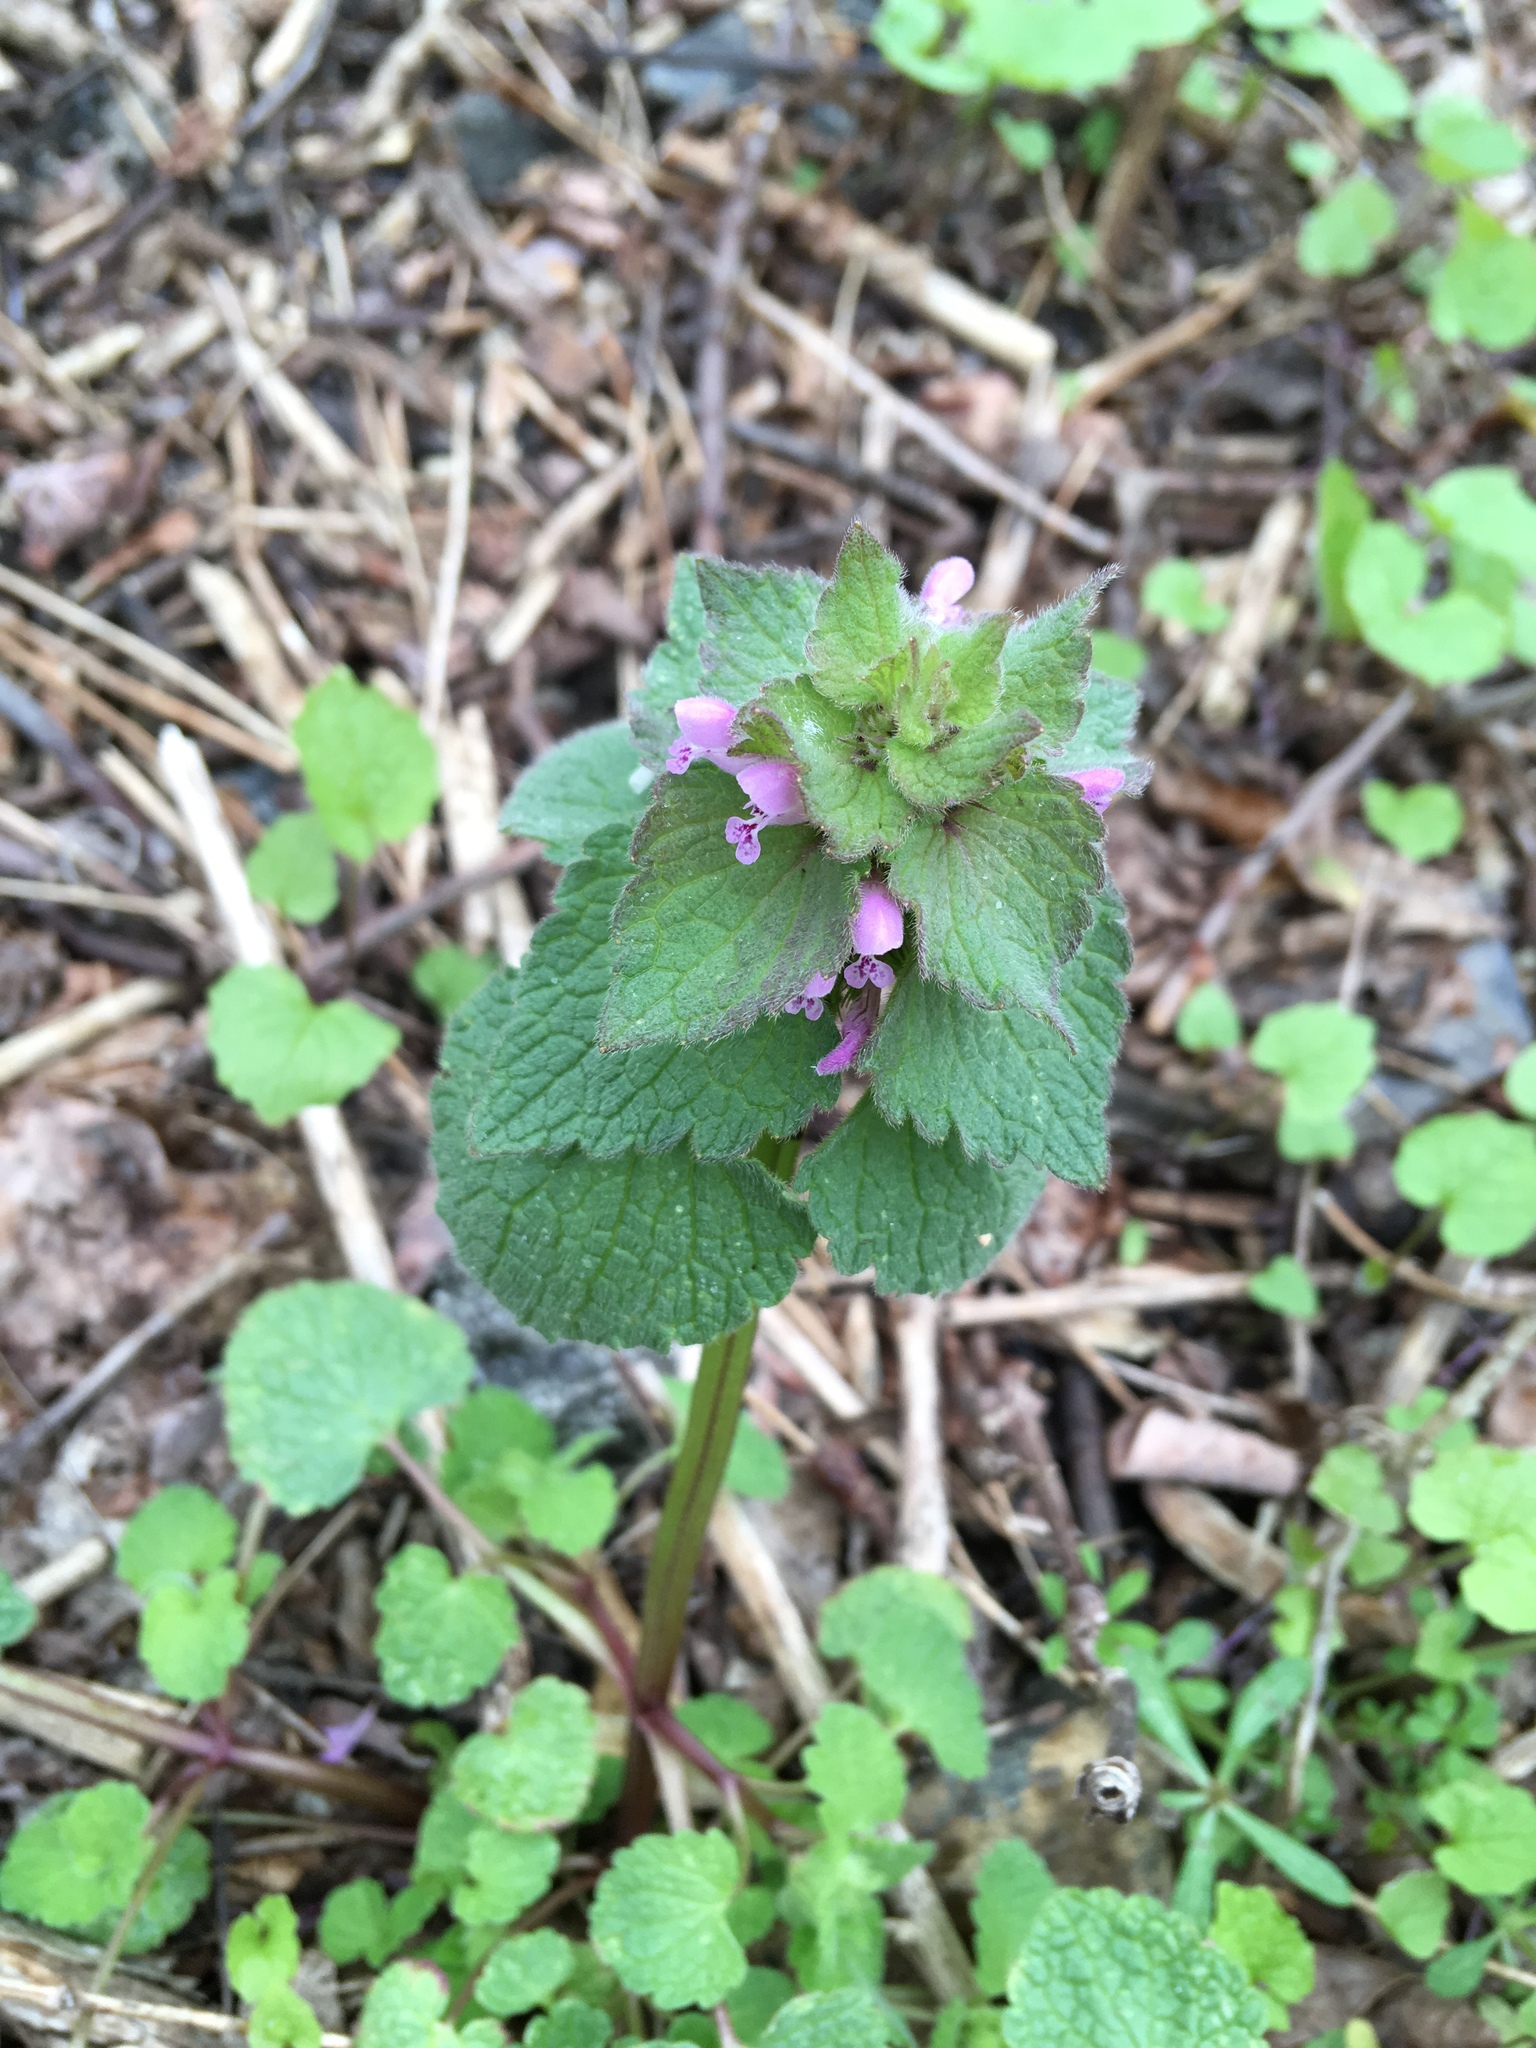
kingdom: Plantae
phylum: Tracheophyta
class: Magnoliopsida
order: Lamiales
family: Lamiaceae
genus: Lamium
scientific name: Lamium purpureum
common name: Red dead-nettle
